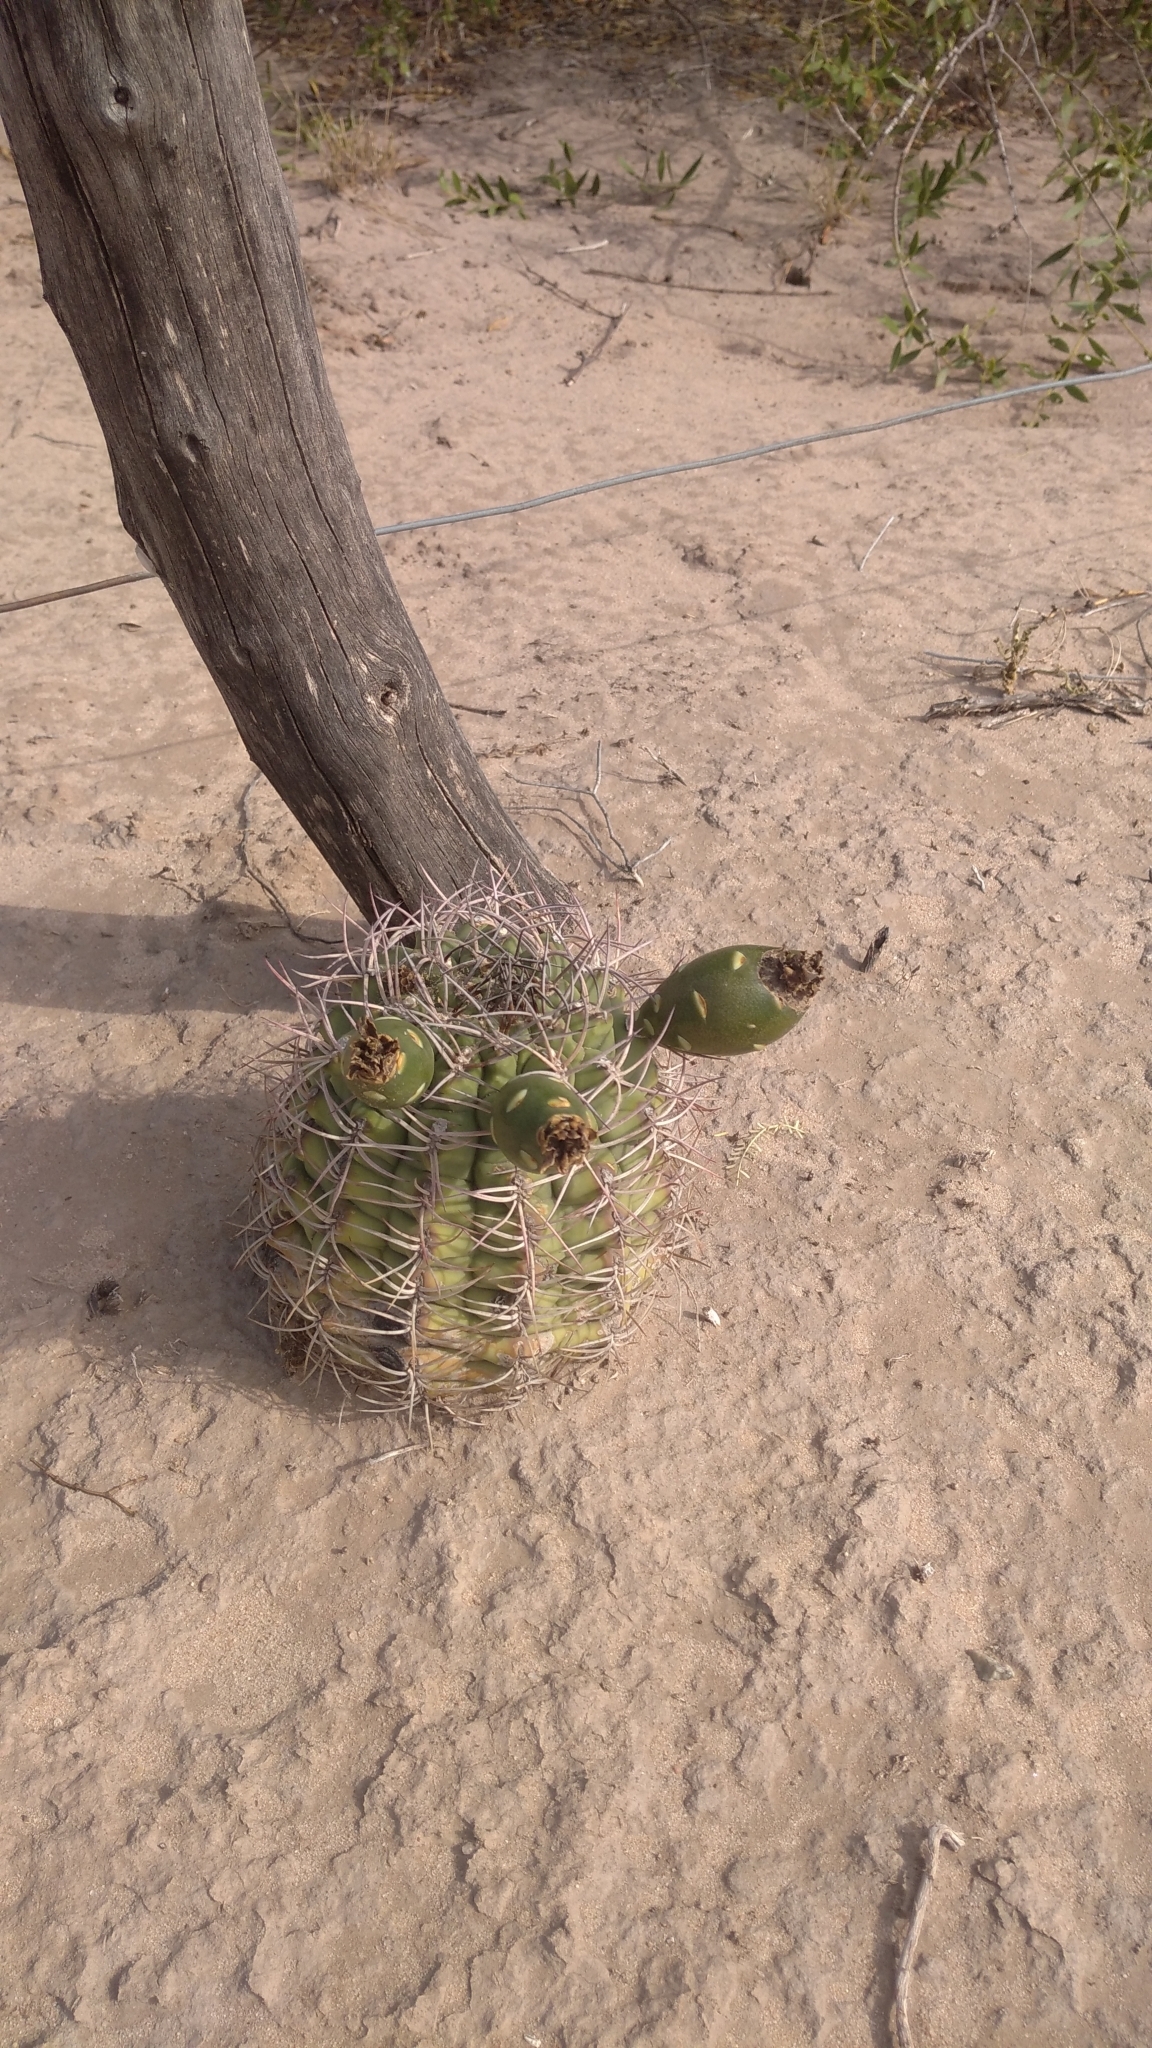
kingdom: Plantae
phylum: Tracheophyta
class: Magnoliopsida
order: Caryophyllales
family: Cactaceae
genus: Gymnocalycium
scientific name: Gymnocalycium schickendantzii
